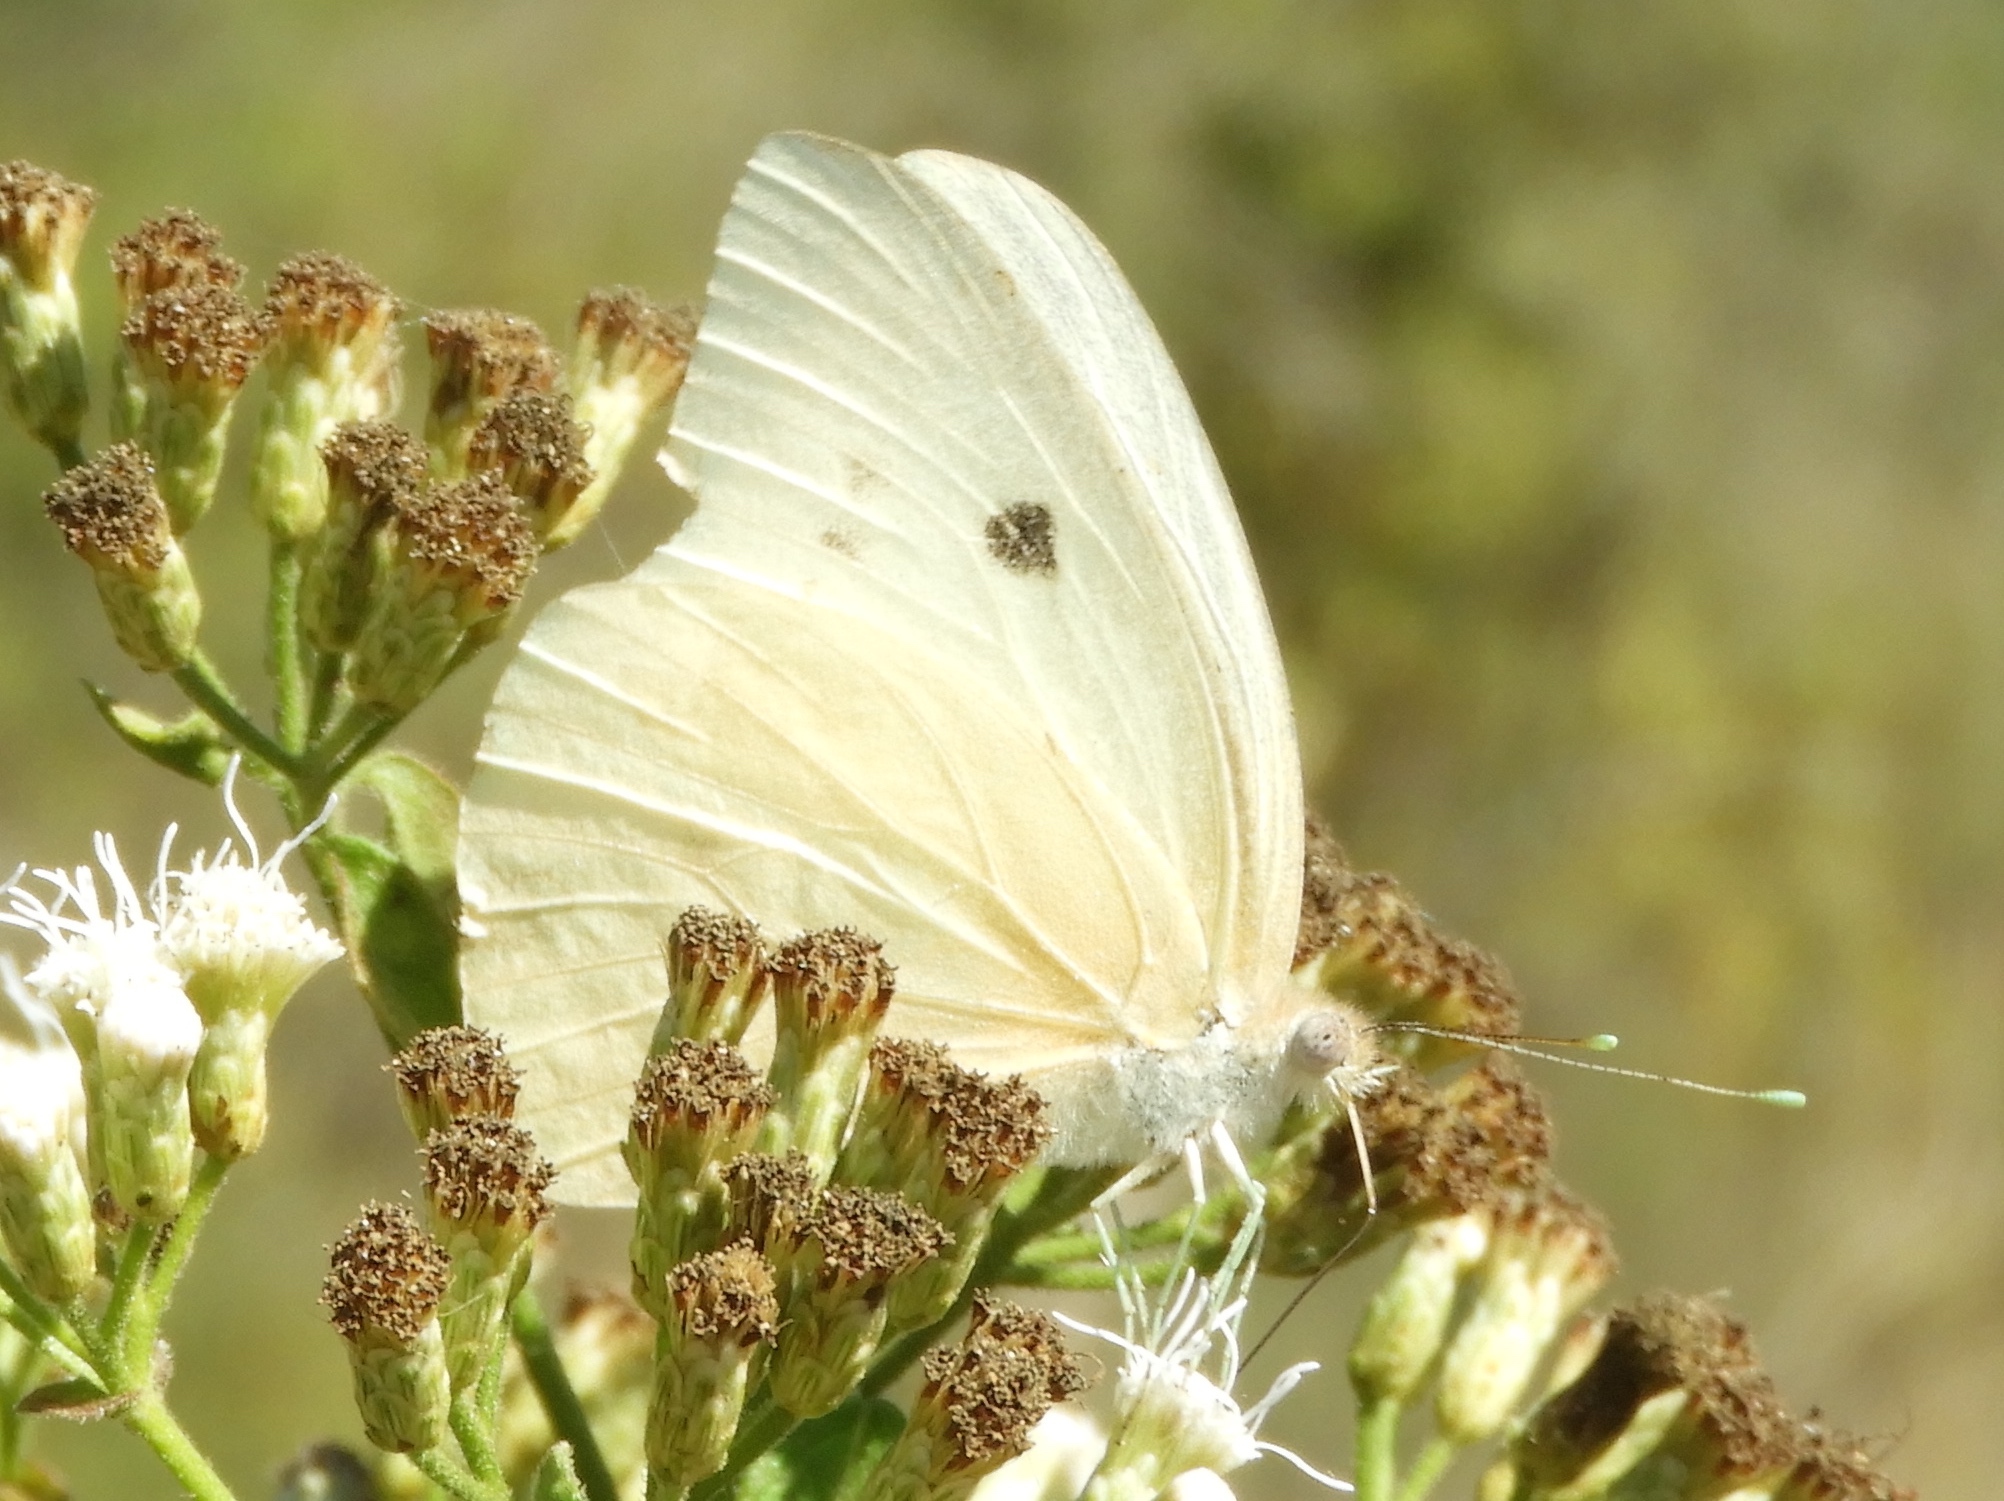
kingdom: Animalia
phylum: Arthropoda
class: Insecta
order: Lepidoptera
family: Pieridae
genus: Ganyra
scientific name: Ganyra josephina
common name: Giant white
